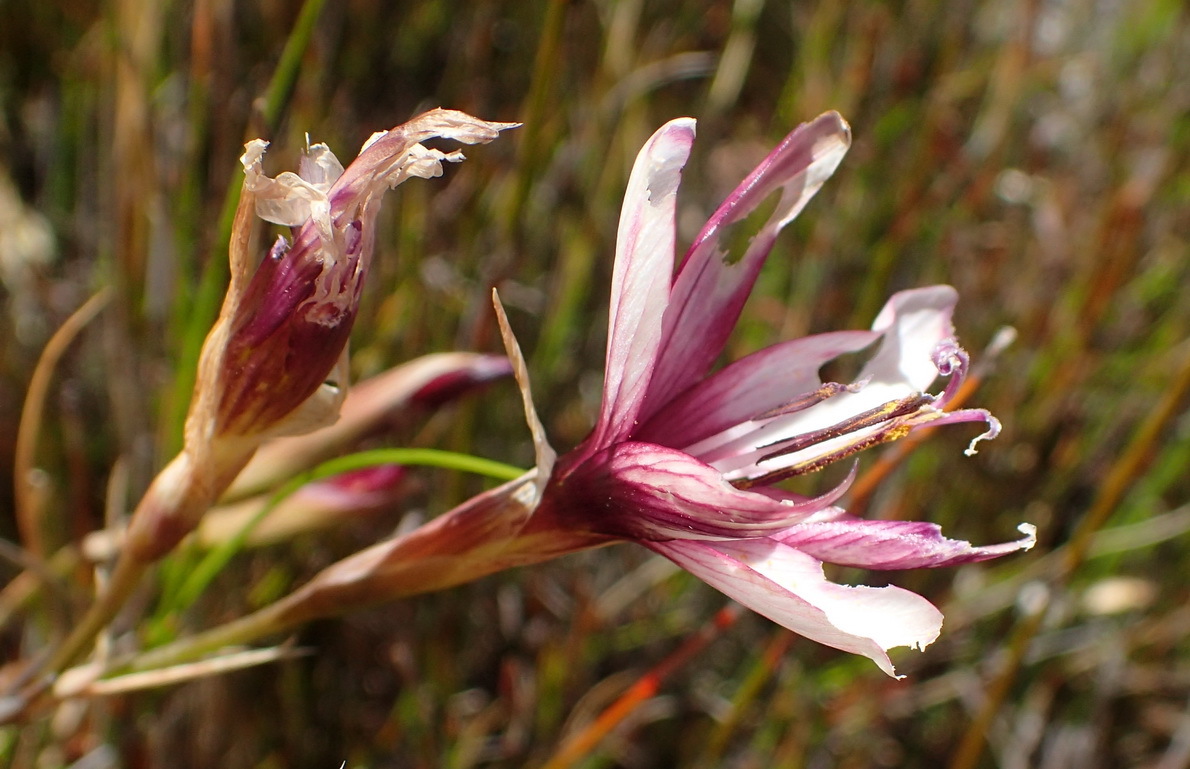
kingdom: Plantae
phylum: Tracheophyta
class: Liliopsida
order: Asparagales
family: Iridaceae
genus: Geissorhiza
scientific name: Geissorhiza fourcadei
